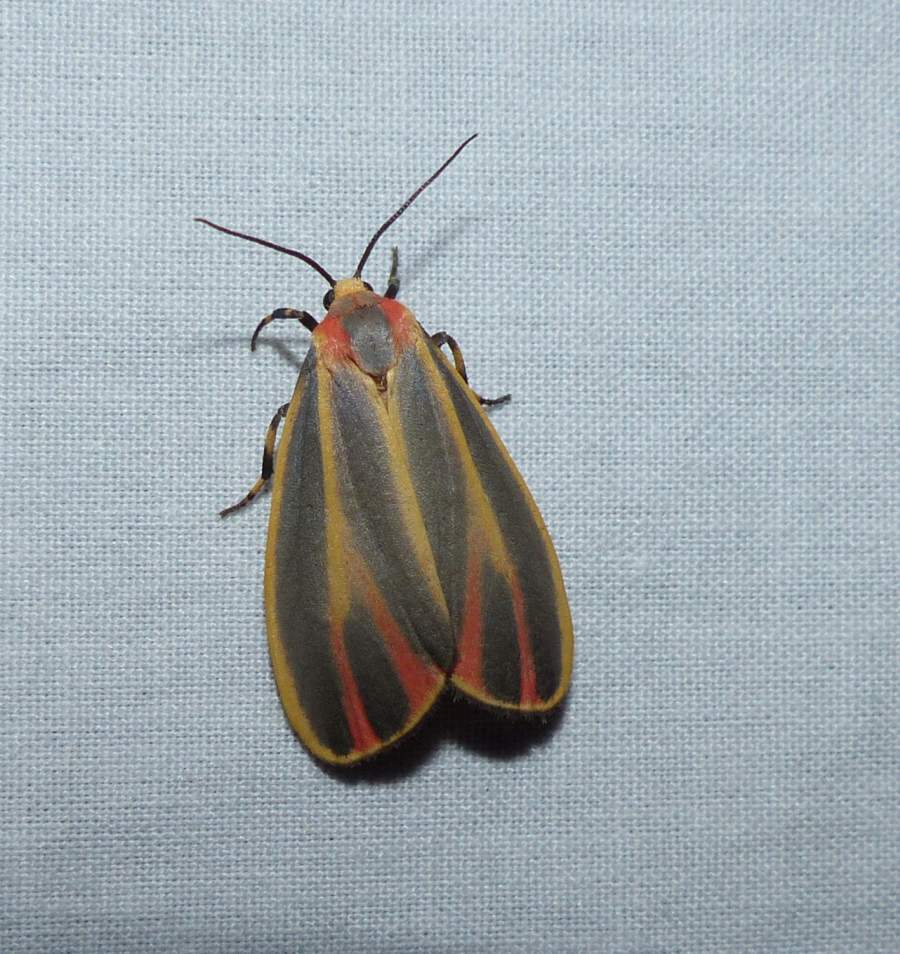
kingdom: Animalia
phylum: Arthropoda
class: Insecta
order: Lepidoptera
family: Erebidae
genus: Hypoprepia
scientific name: Hypoprepia fucosa
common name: Painted lichen moth
